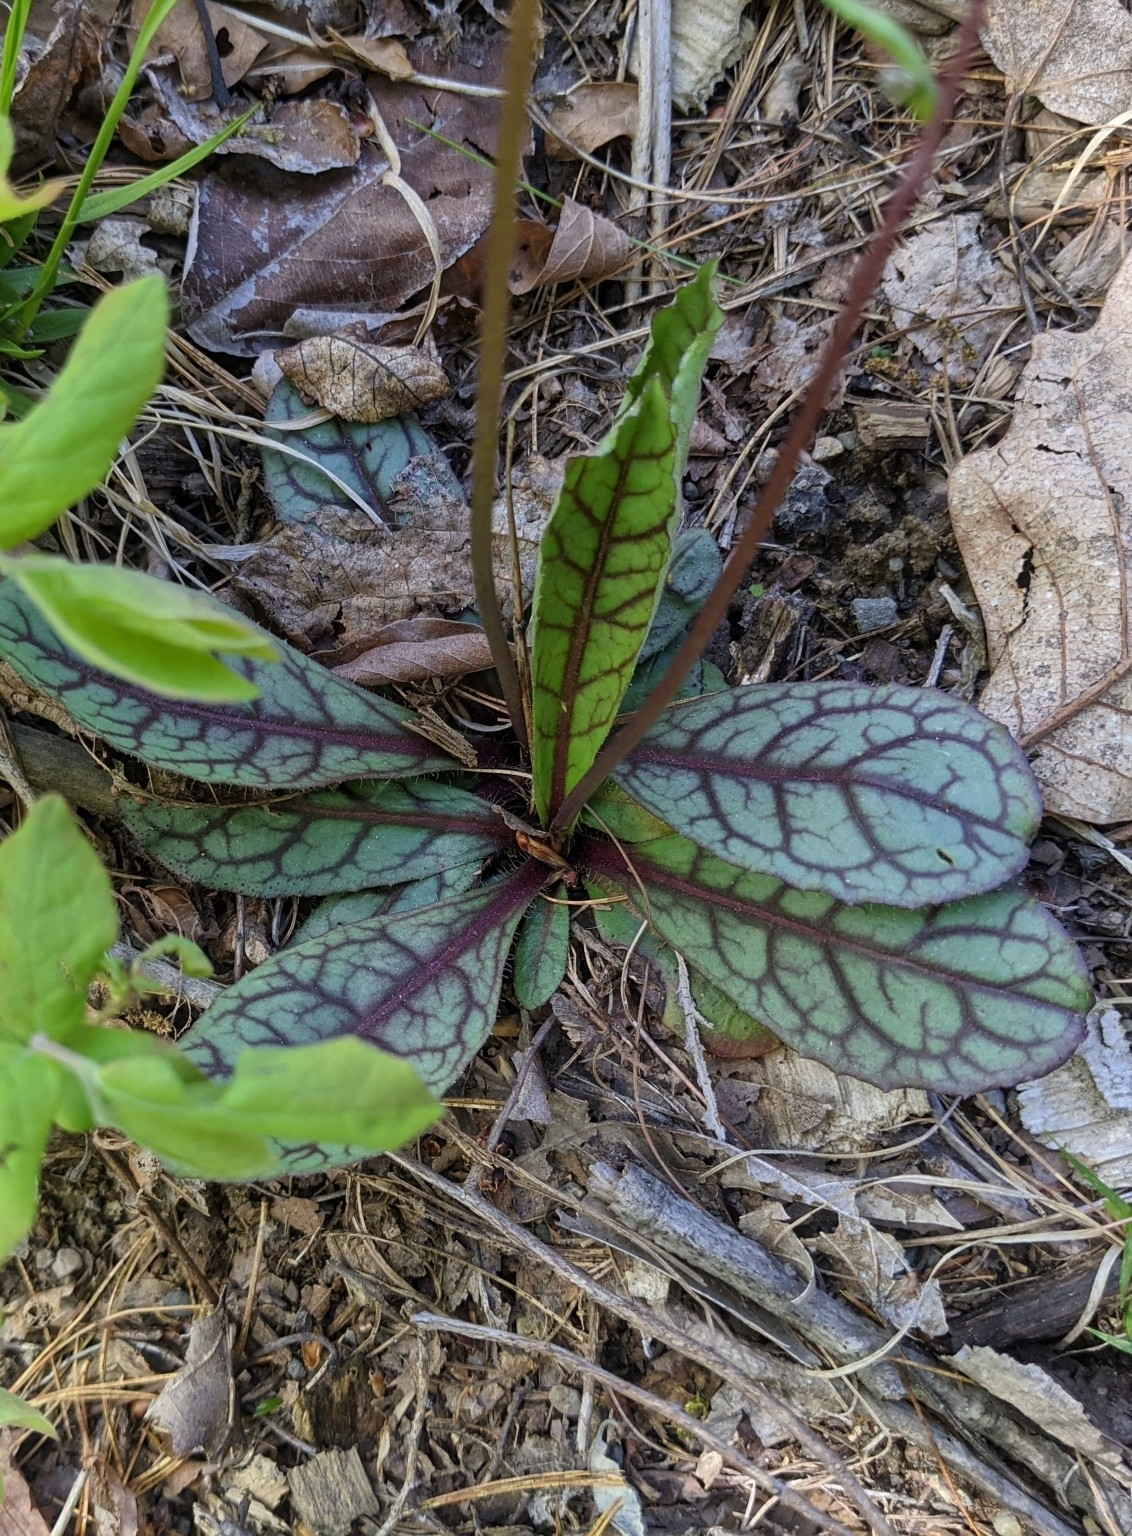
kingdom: Plantae
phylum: Tracheophyta
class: Magnoliopsida
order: Asterales
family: Asteraceae
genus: Hieracium
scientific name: Hieracium venosum
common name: Rattlesnake hawkweed
